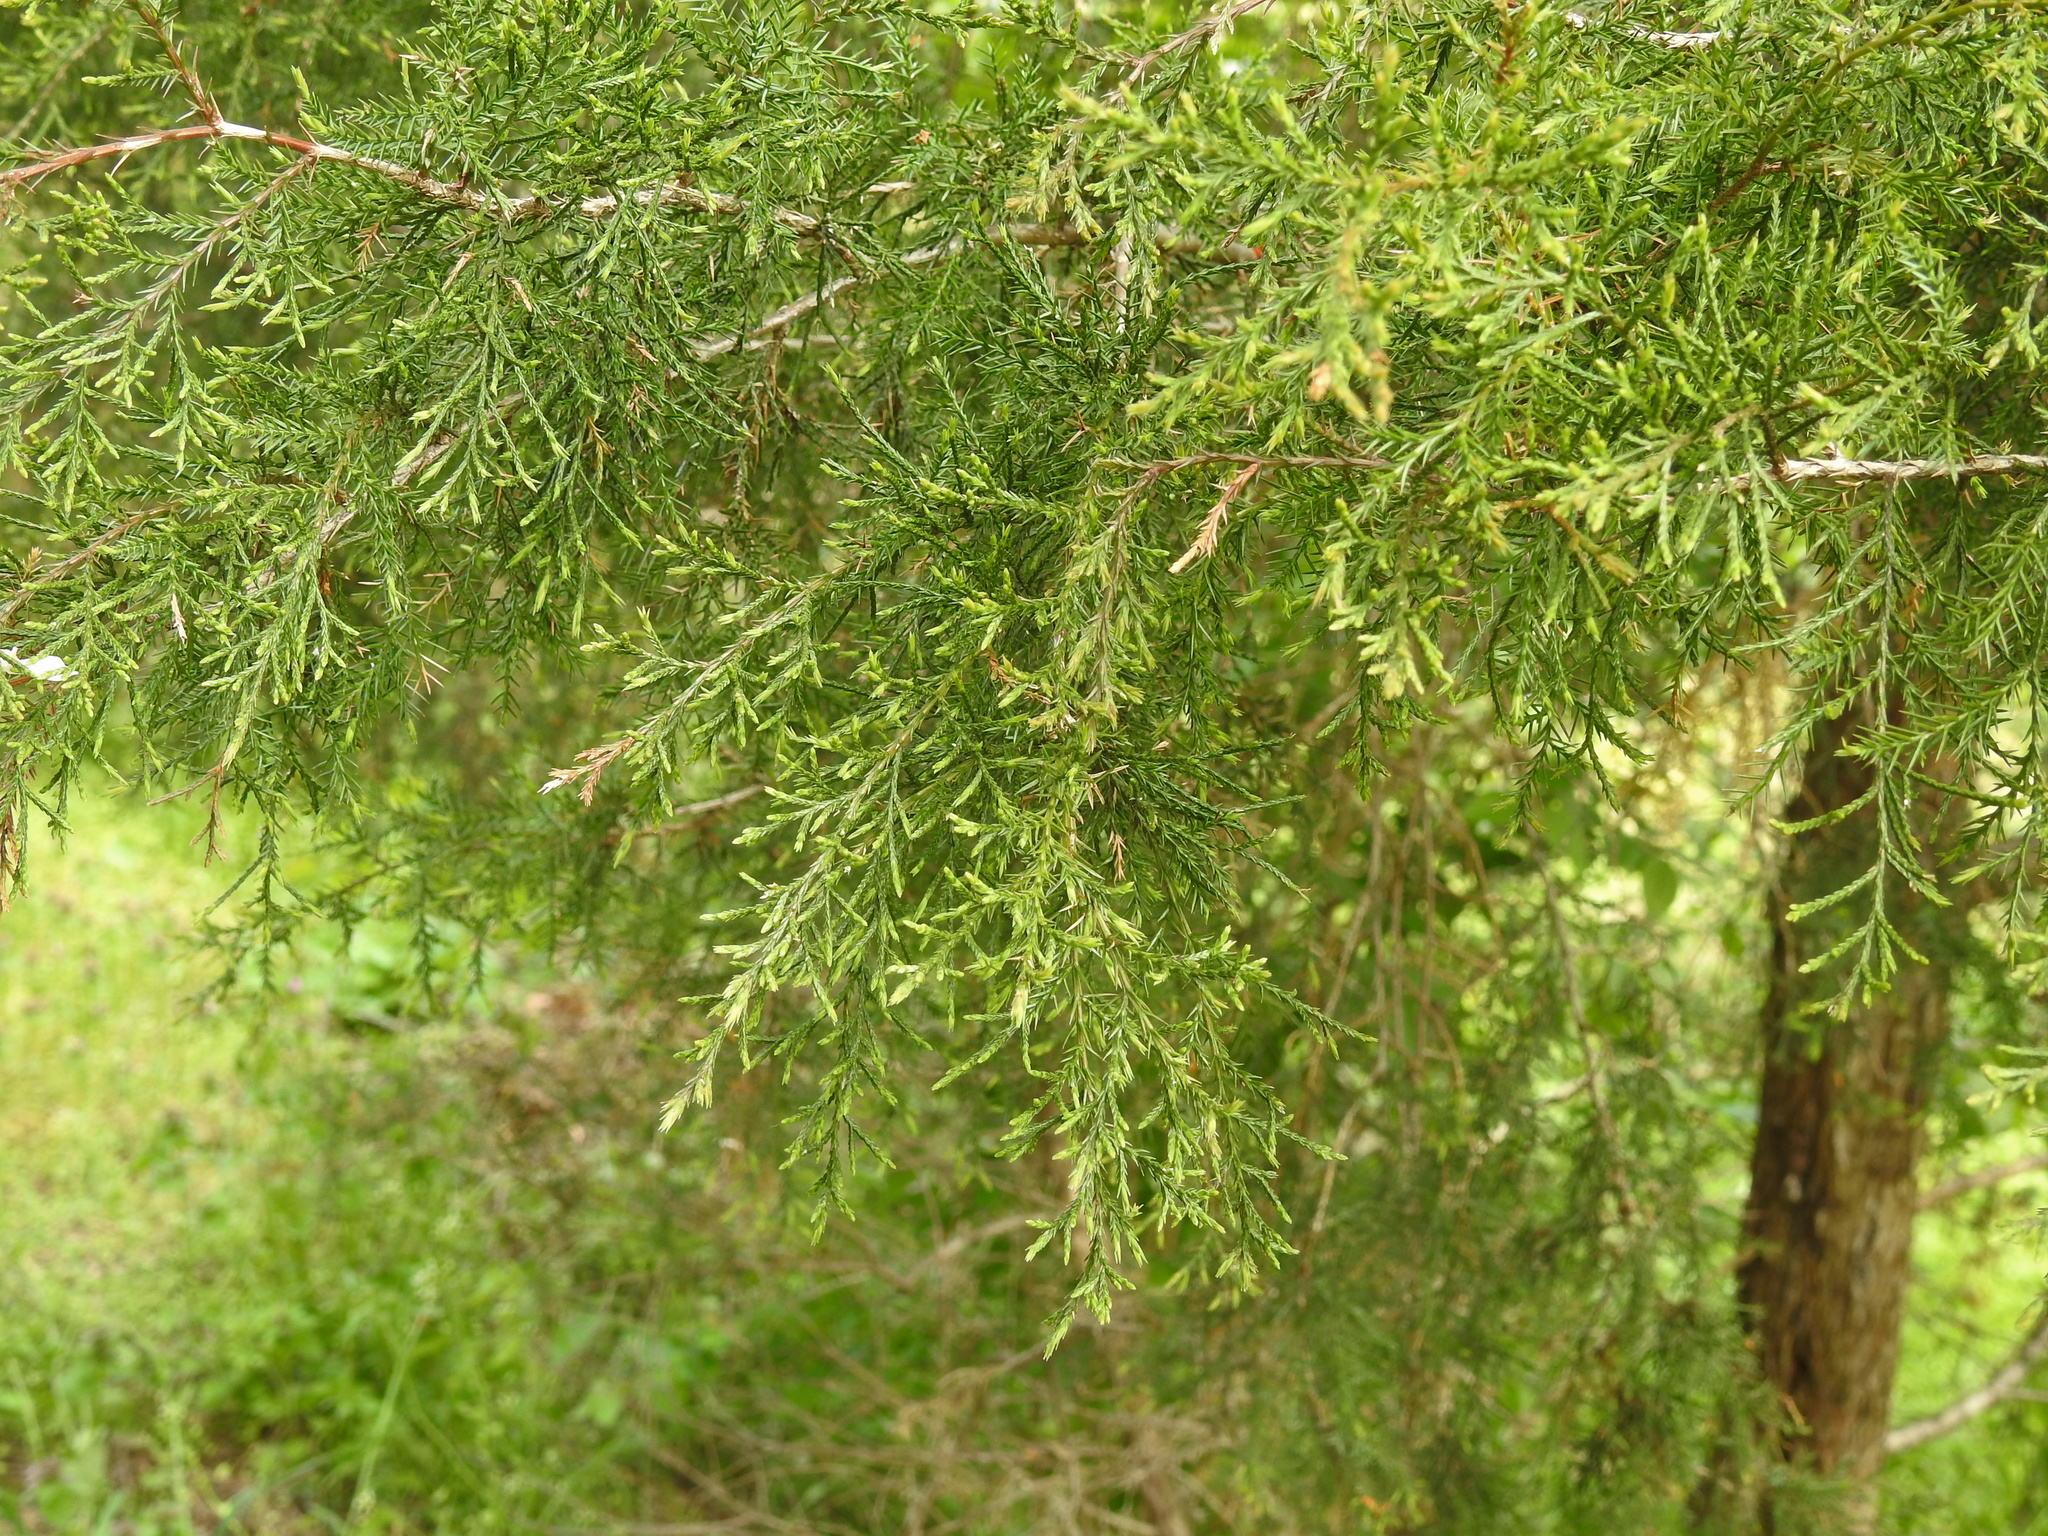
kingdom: Plantae
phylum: Tracheophyta
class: Pinopsida
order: Pinales
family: Cupressaceae
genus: Juniperus
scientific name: Juniperus virginiana
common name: Red juniper
